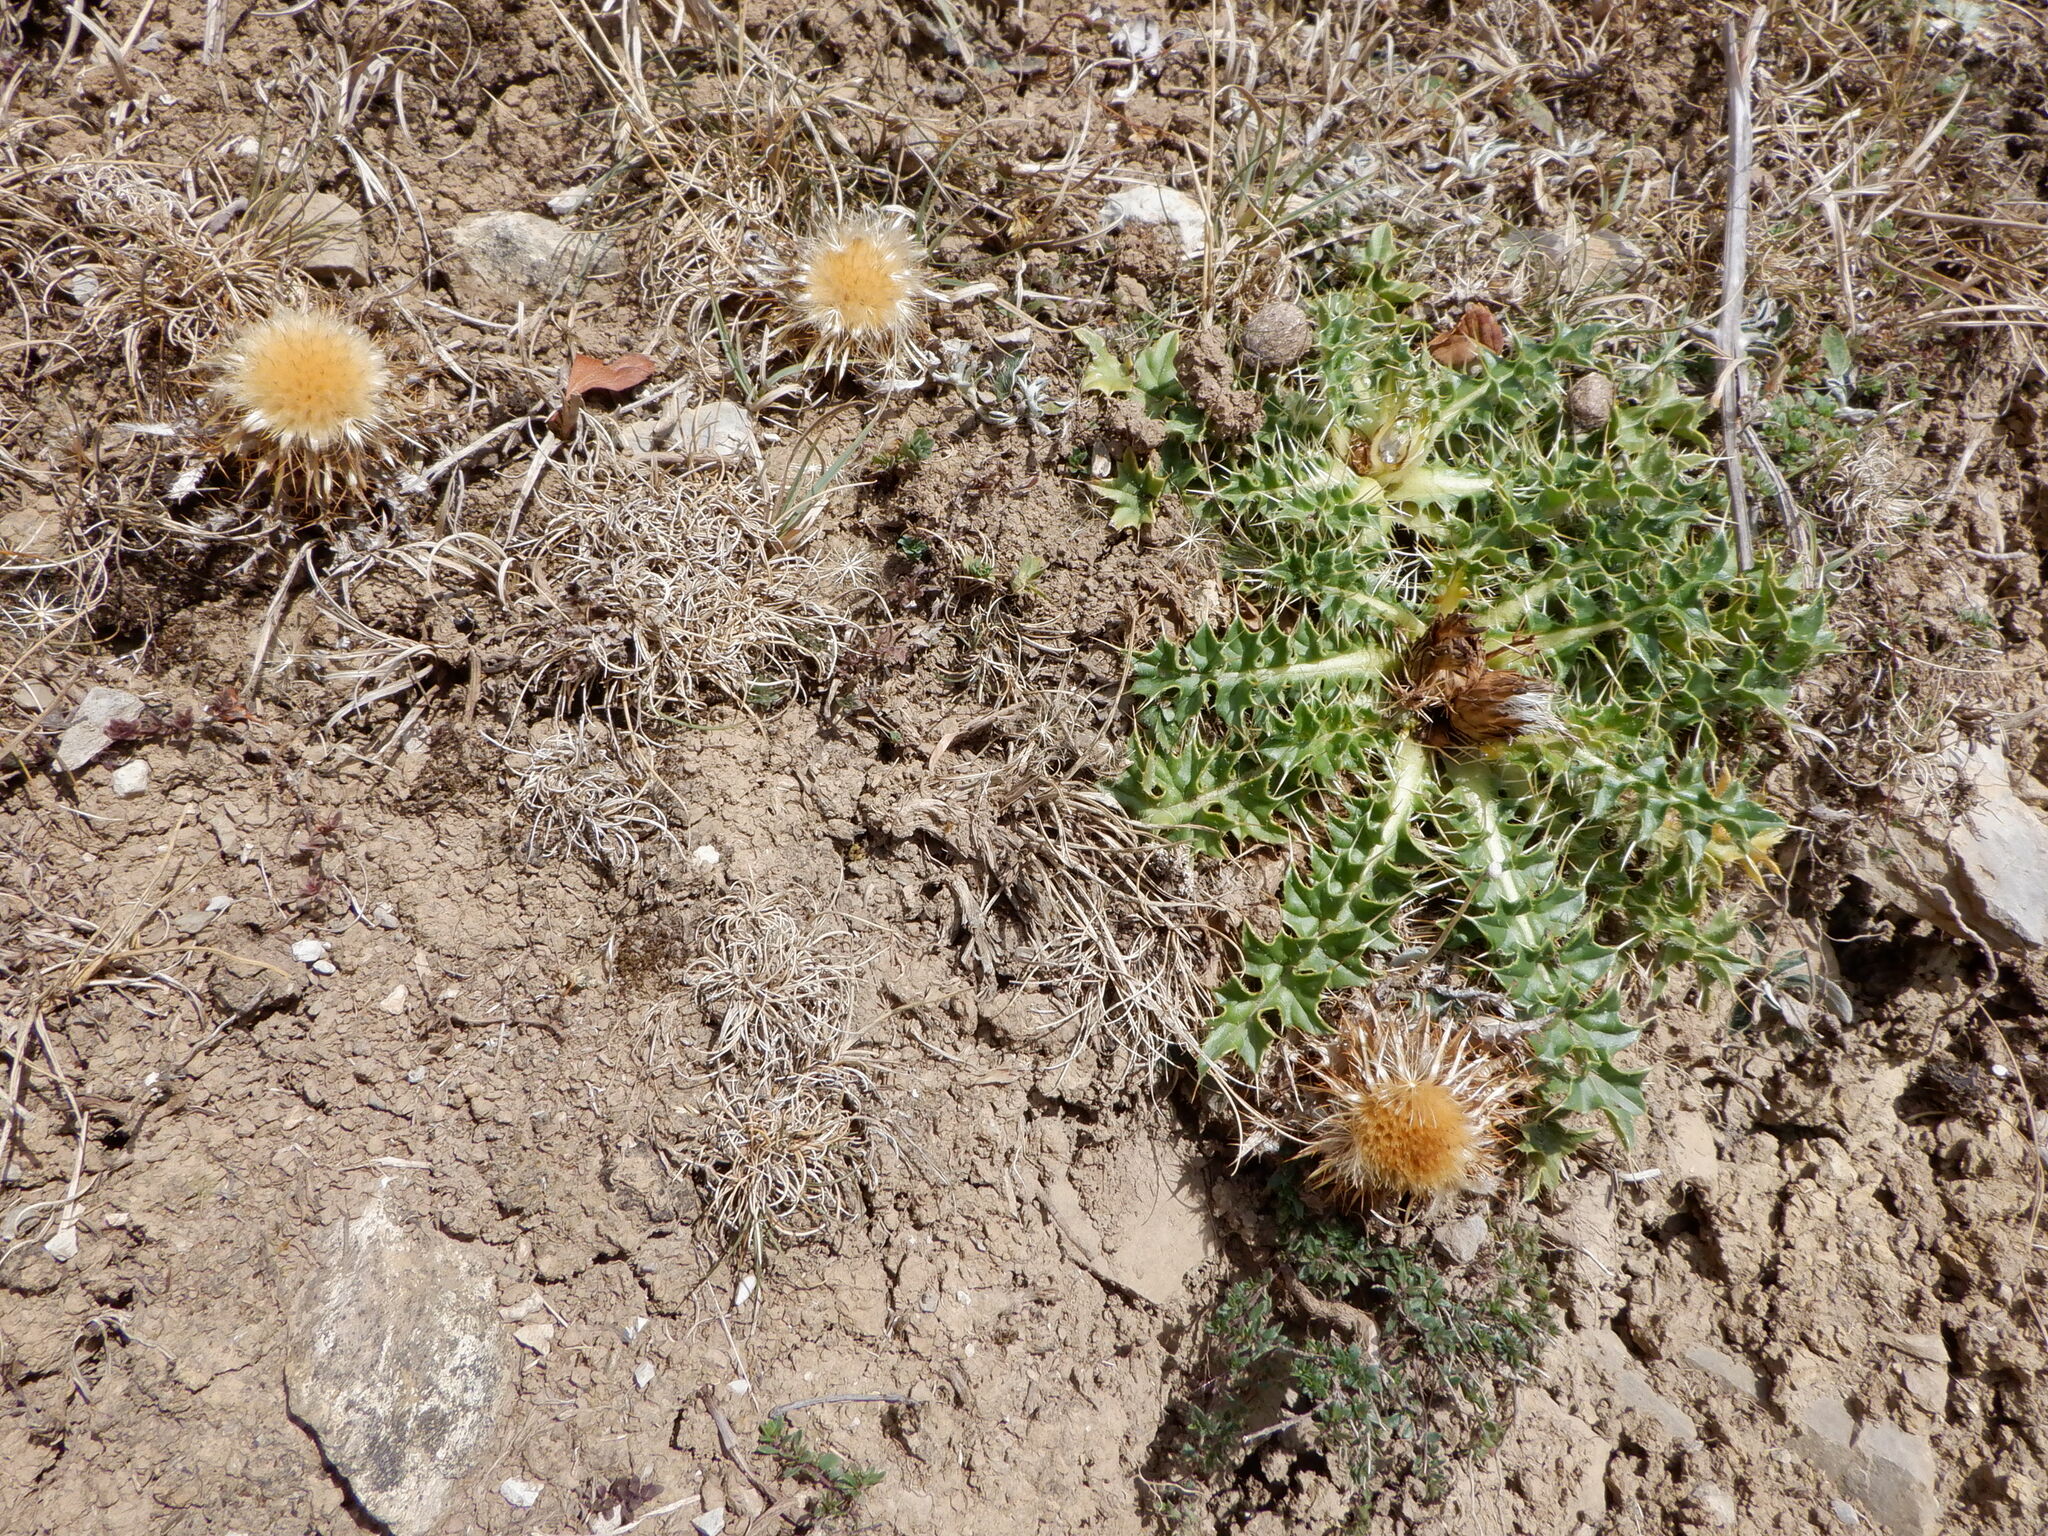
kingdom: Plantae
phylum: Tracheophyta
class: Magnoliopsida
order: Asterales
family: Asteraceae
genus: Carlina
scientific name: Carlina vulgaris
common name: Carline thistle
